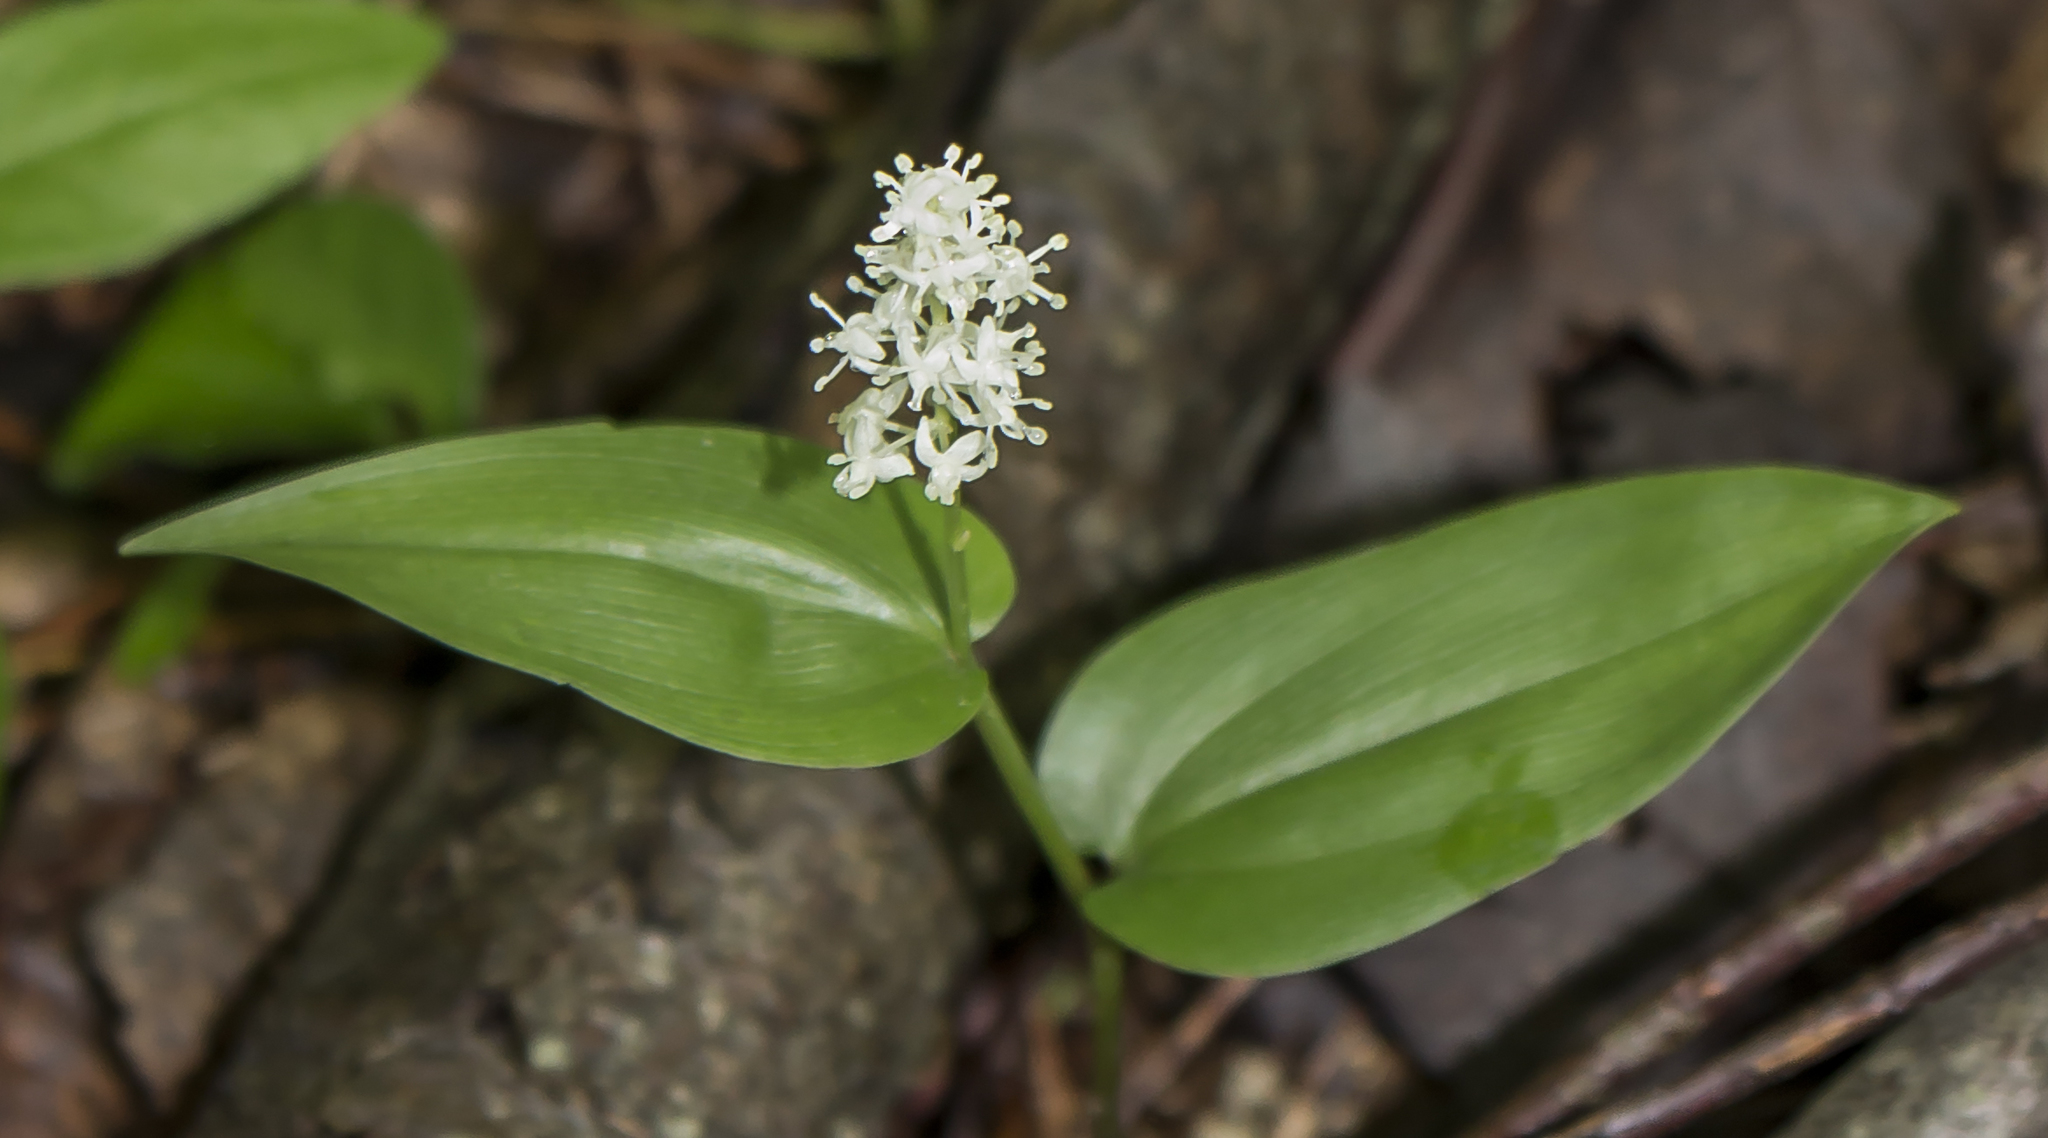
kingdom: Plantae
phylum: Tracheophyta
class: Liliopsida
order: Asparagales
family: Asparagaceae
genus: Maianthemum
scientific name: Maianthemum canadense
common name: False lily-of-the-valley
